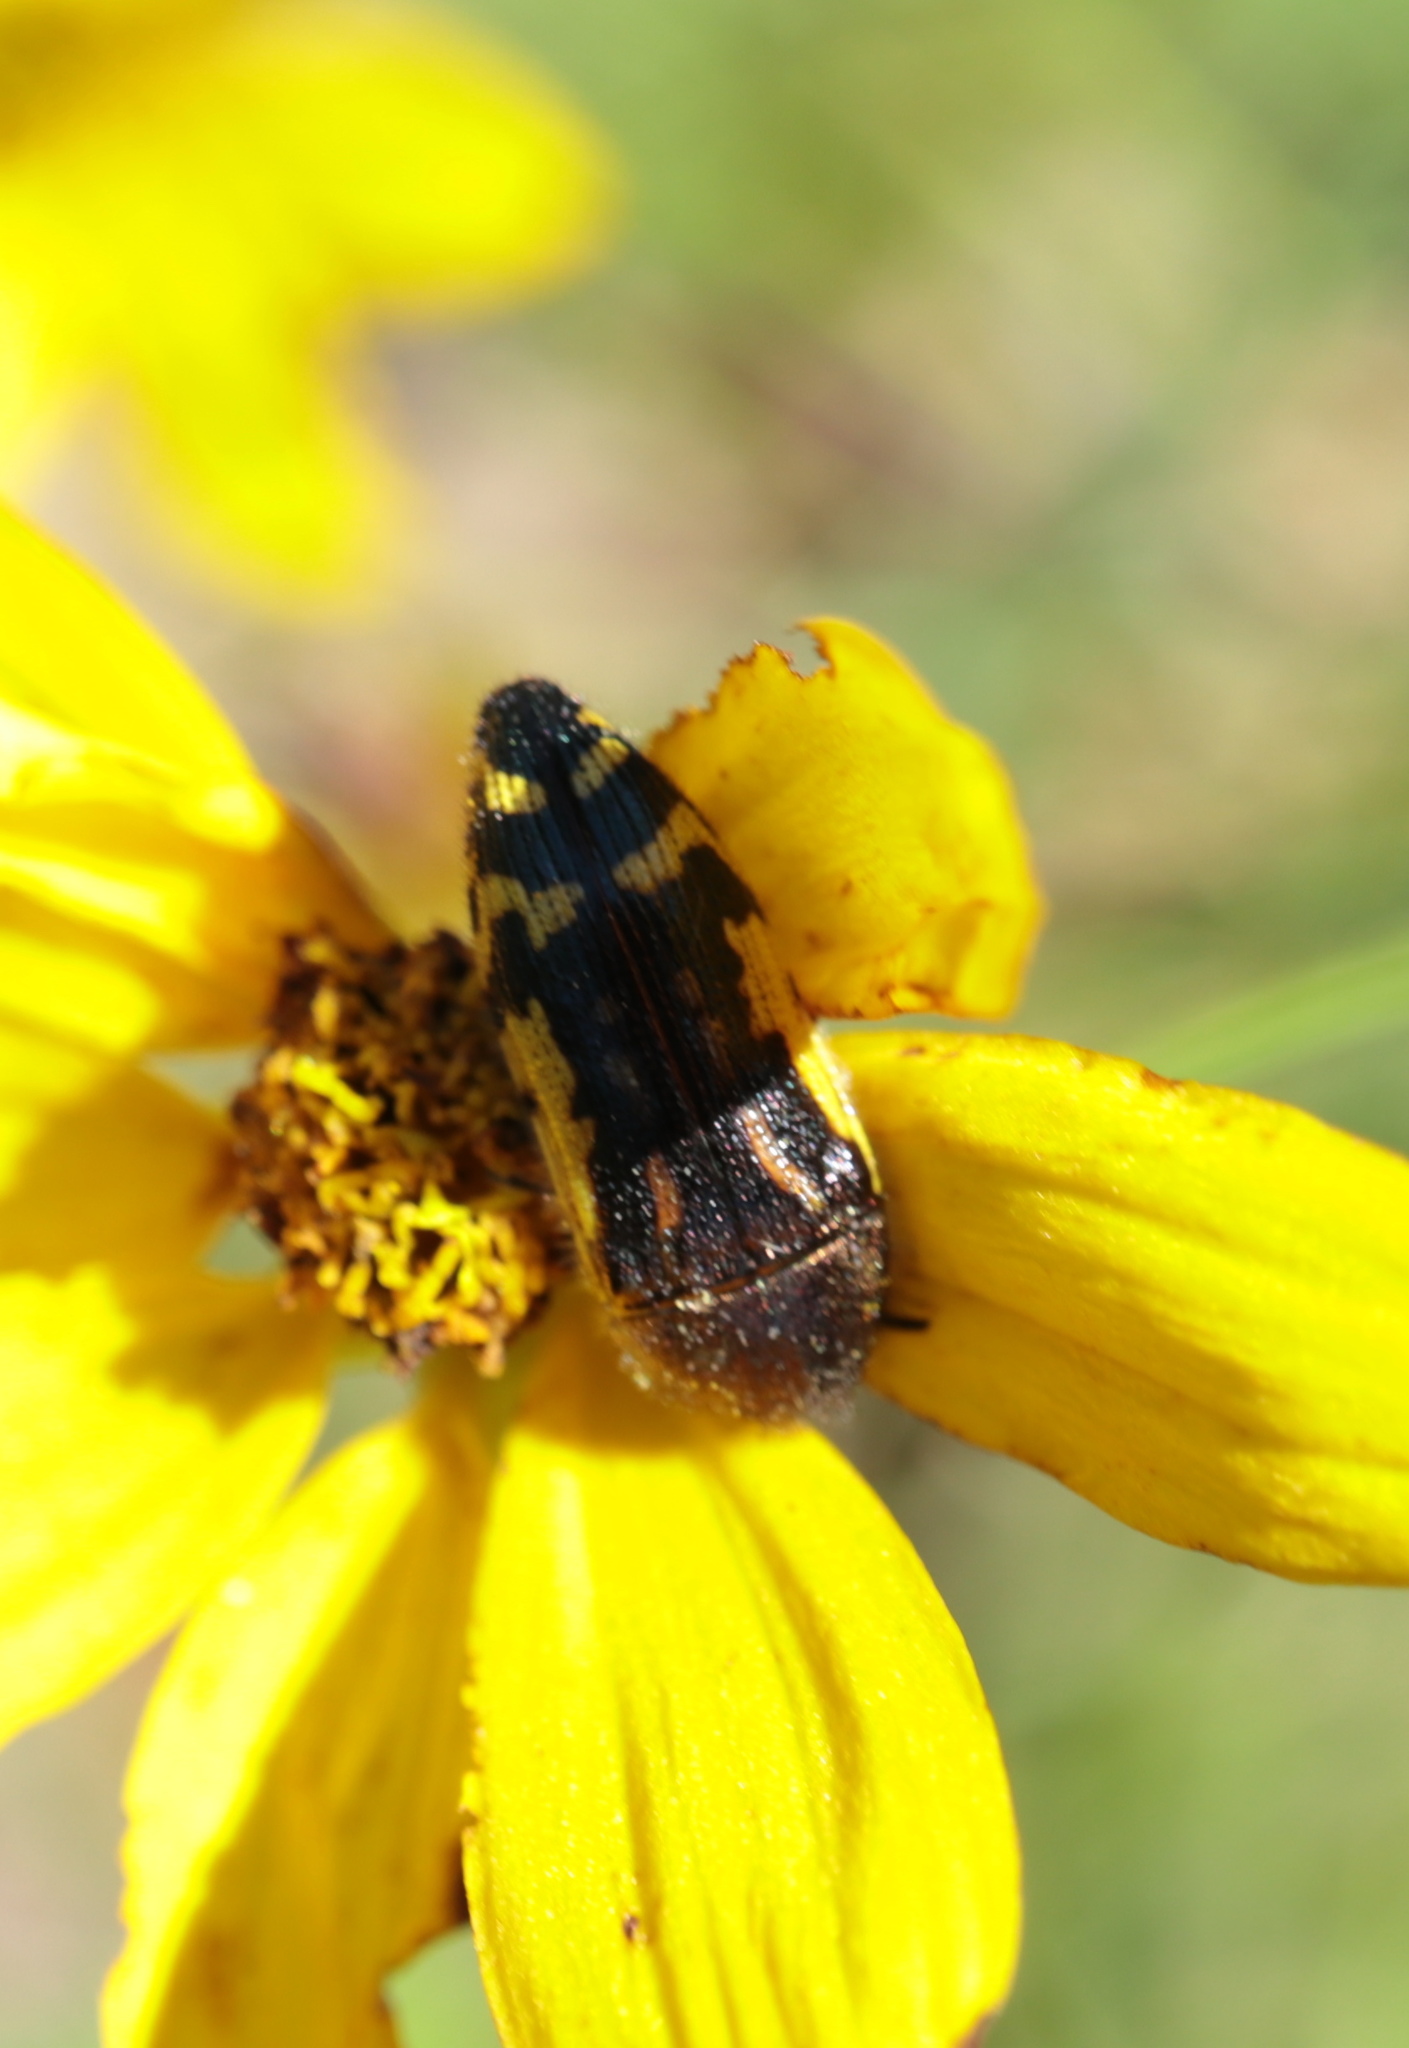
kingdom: Animalia
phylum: Arthropoda
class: Insecta
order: Coleoptera
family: Buprestidae
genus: Acmaeodera
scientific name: Acmaeodera pulchella
